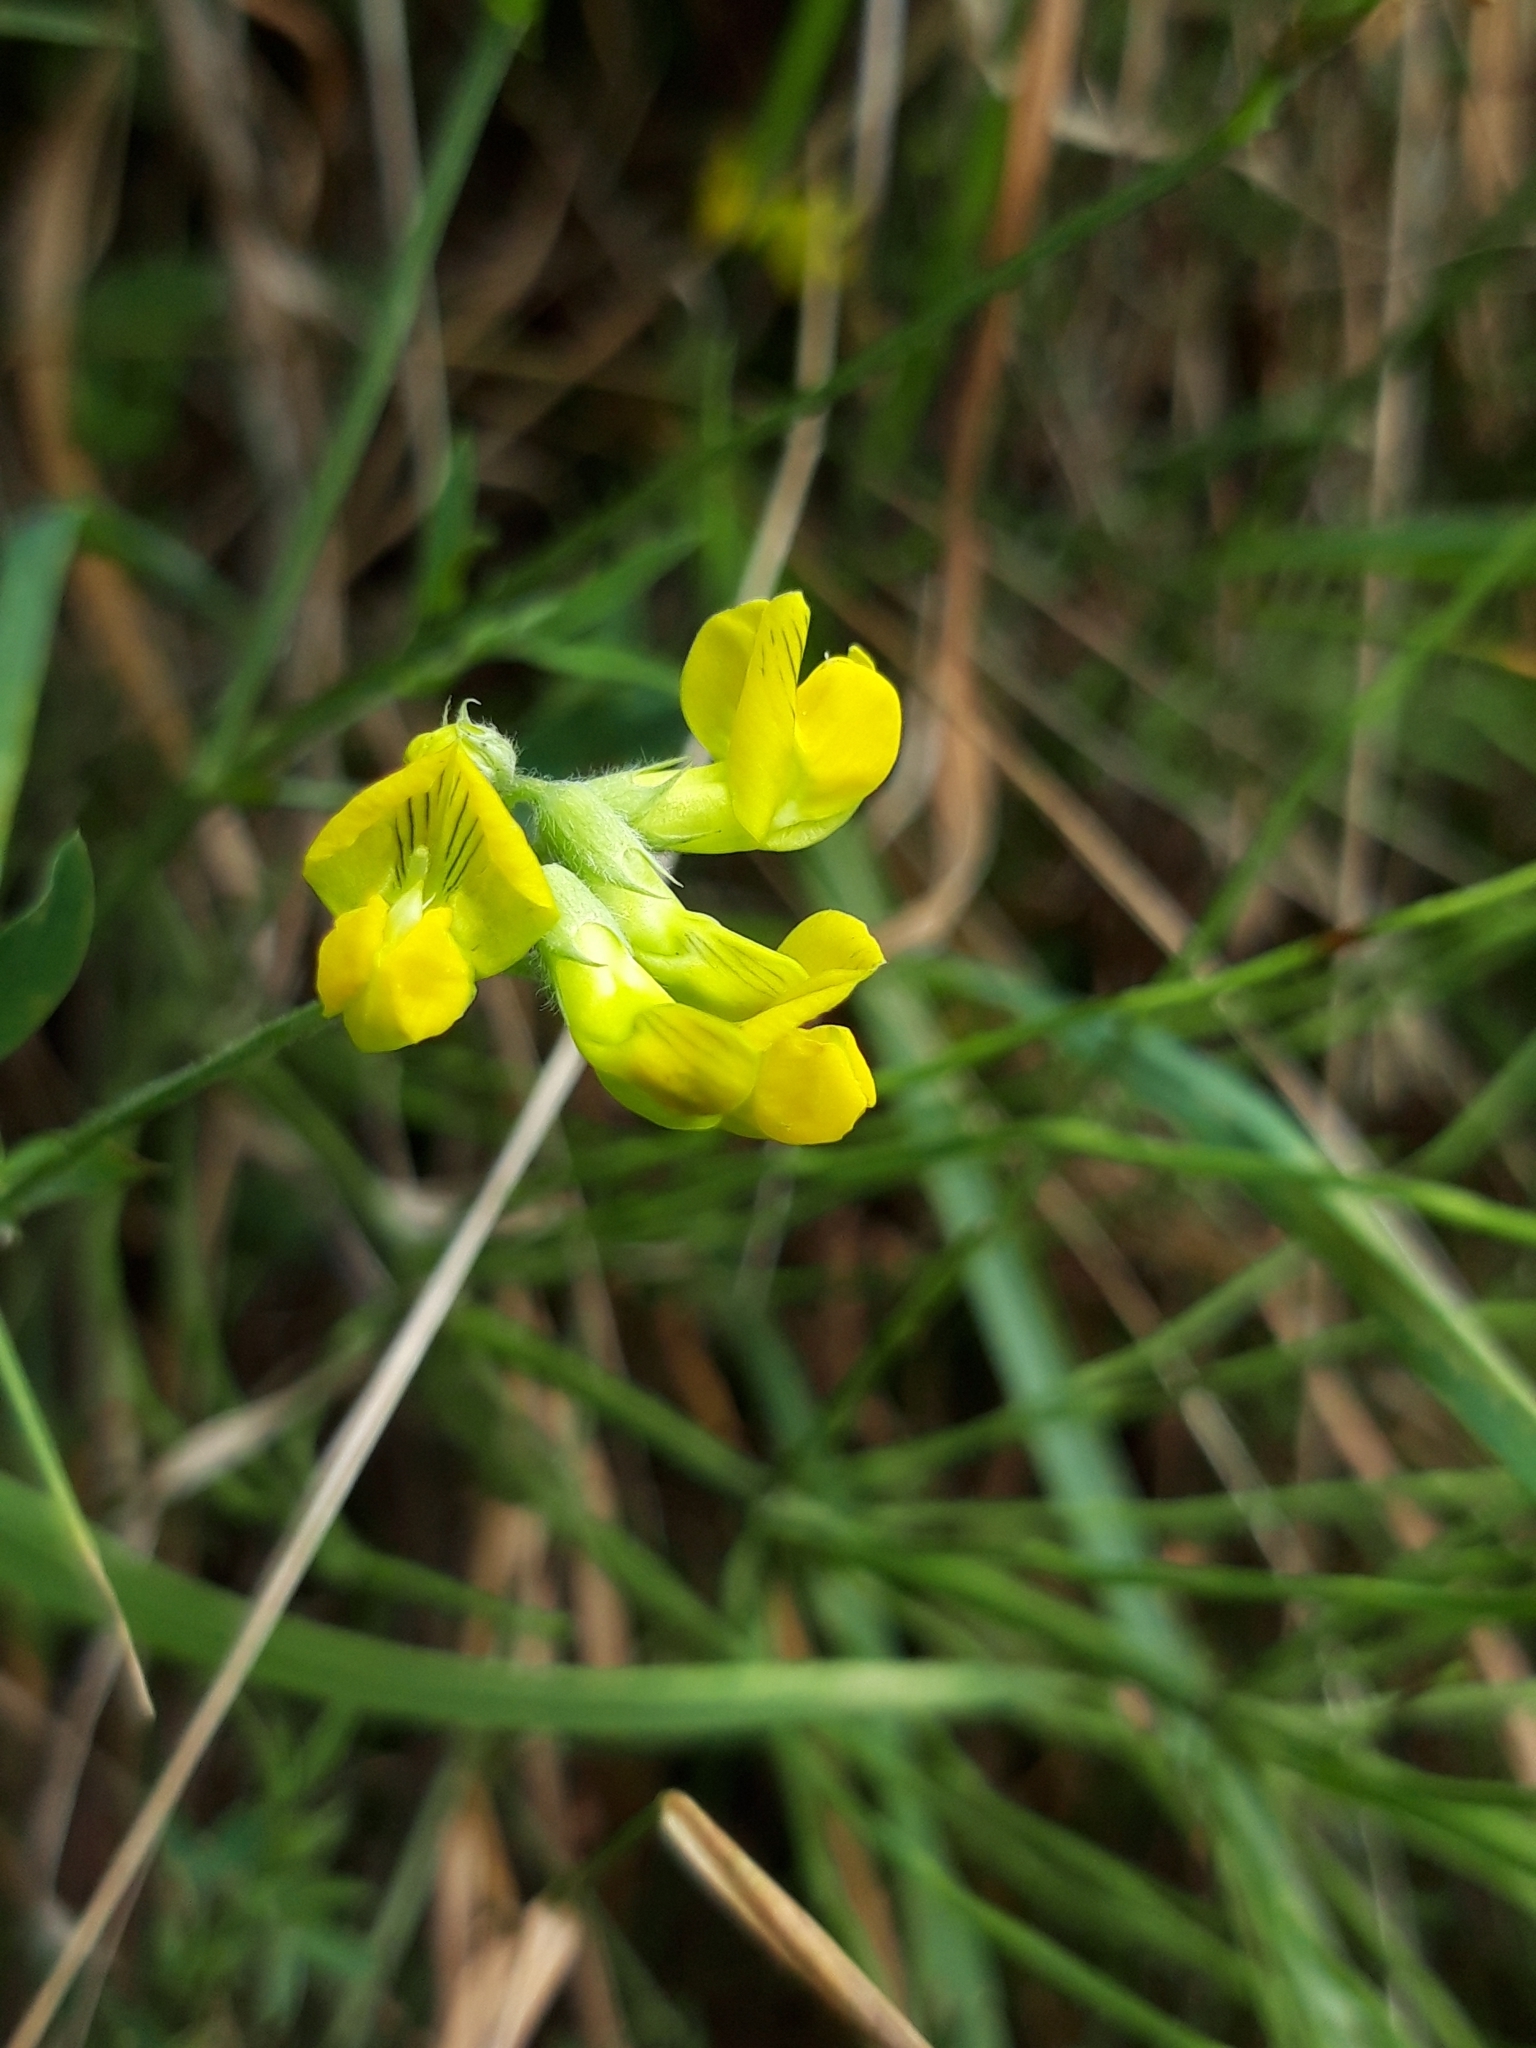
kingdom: Plantae
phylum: Tracheophyta
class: Magnoliopsida
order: Fabales
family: Fabaceae
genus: Lathyrus
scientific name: Lathyrus pratensis
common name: Meadow vetchling
